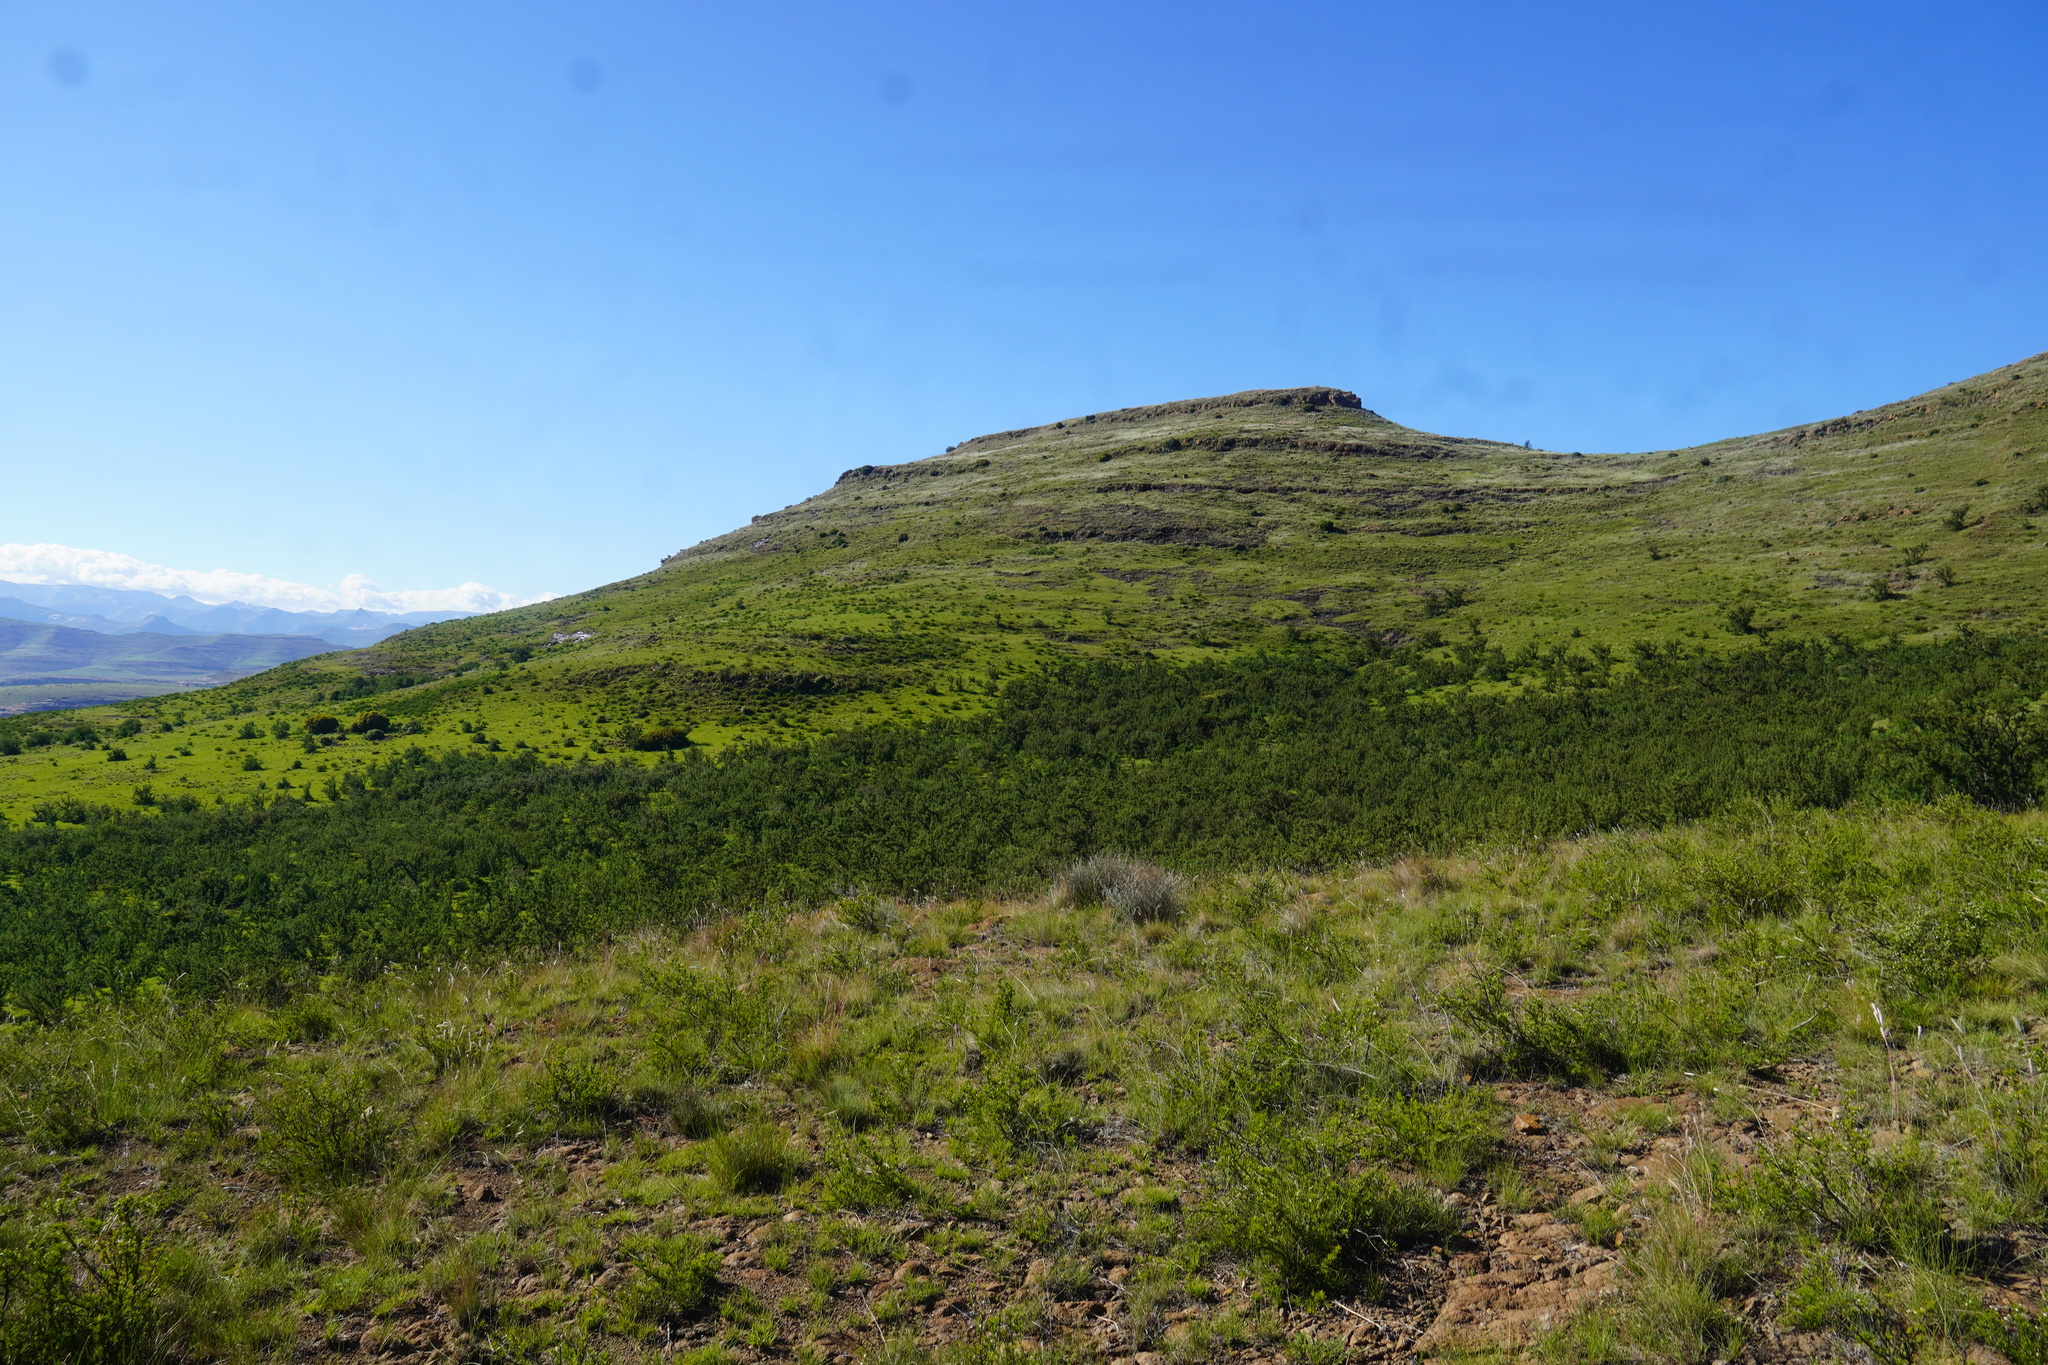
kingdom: Plantae
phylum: Tracheophyta
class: Magnoliopsida
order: Rosales
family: Rosaceae
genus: Leucosidea
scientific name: Leucosidea sericea
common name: Oldwood
